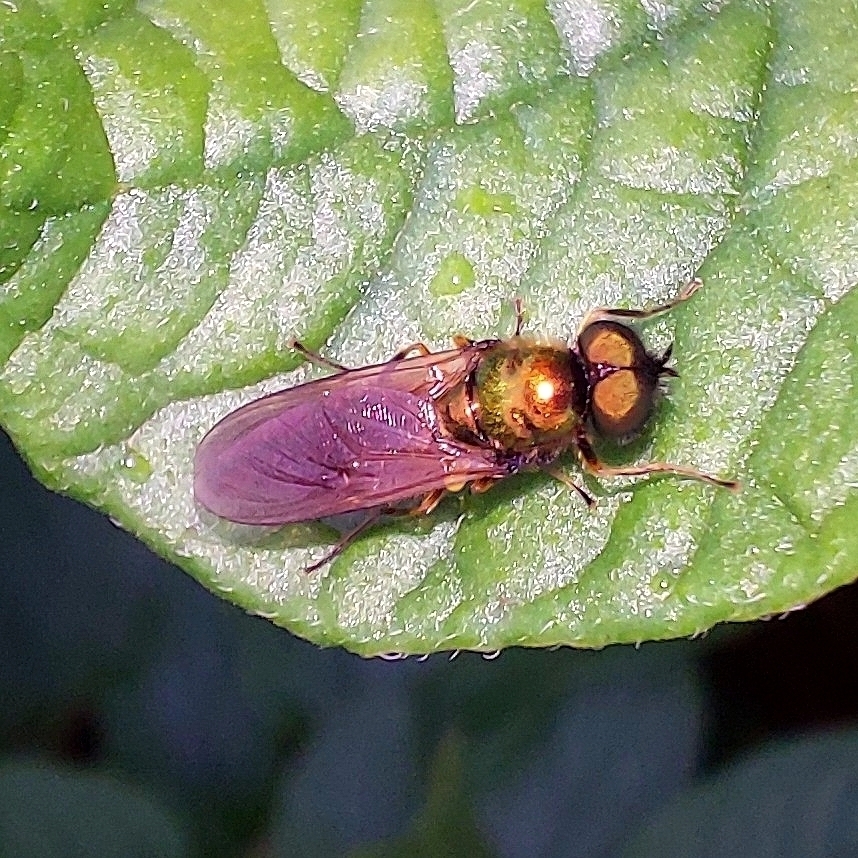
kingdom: Animalia
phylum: Arthropoda
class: Insecta
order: Diptera
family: Stratiomyidae
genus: Chloromyia
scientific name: Chloromyia formosa
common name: Soldier fly
